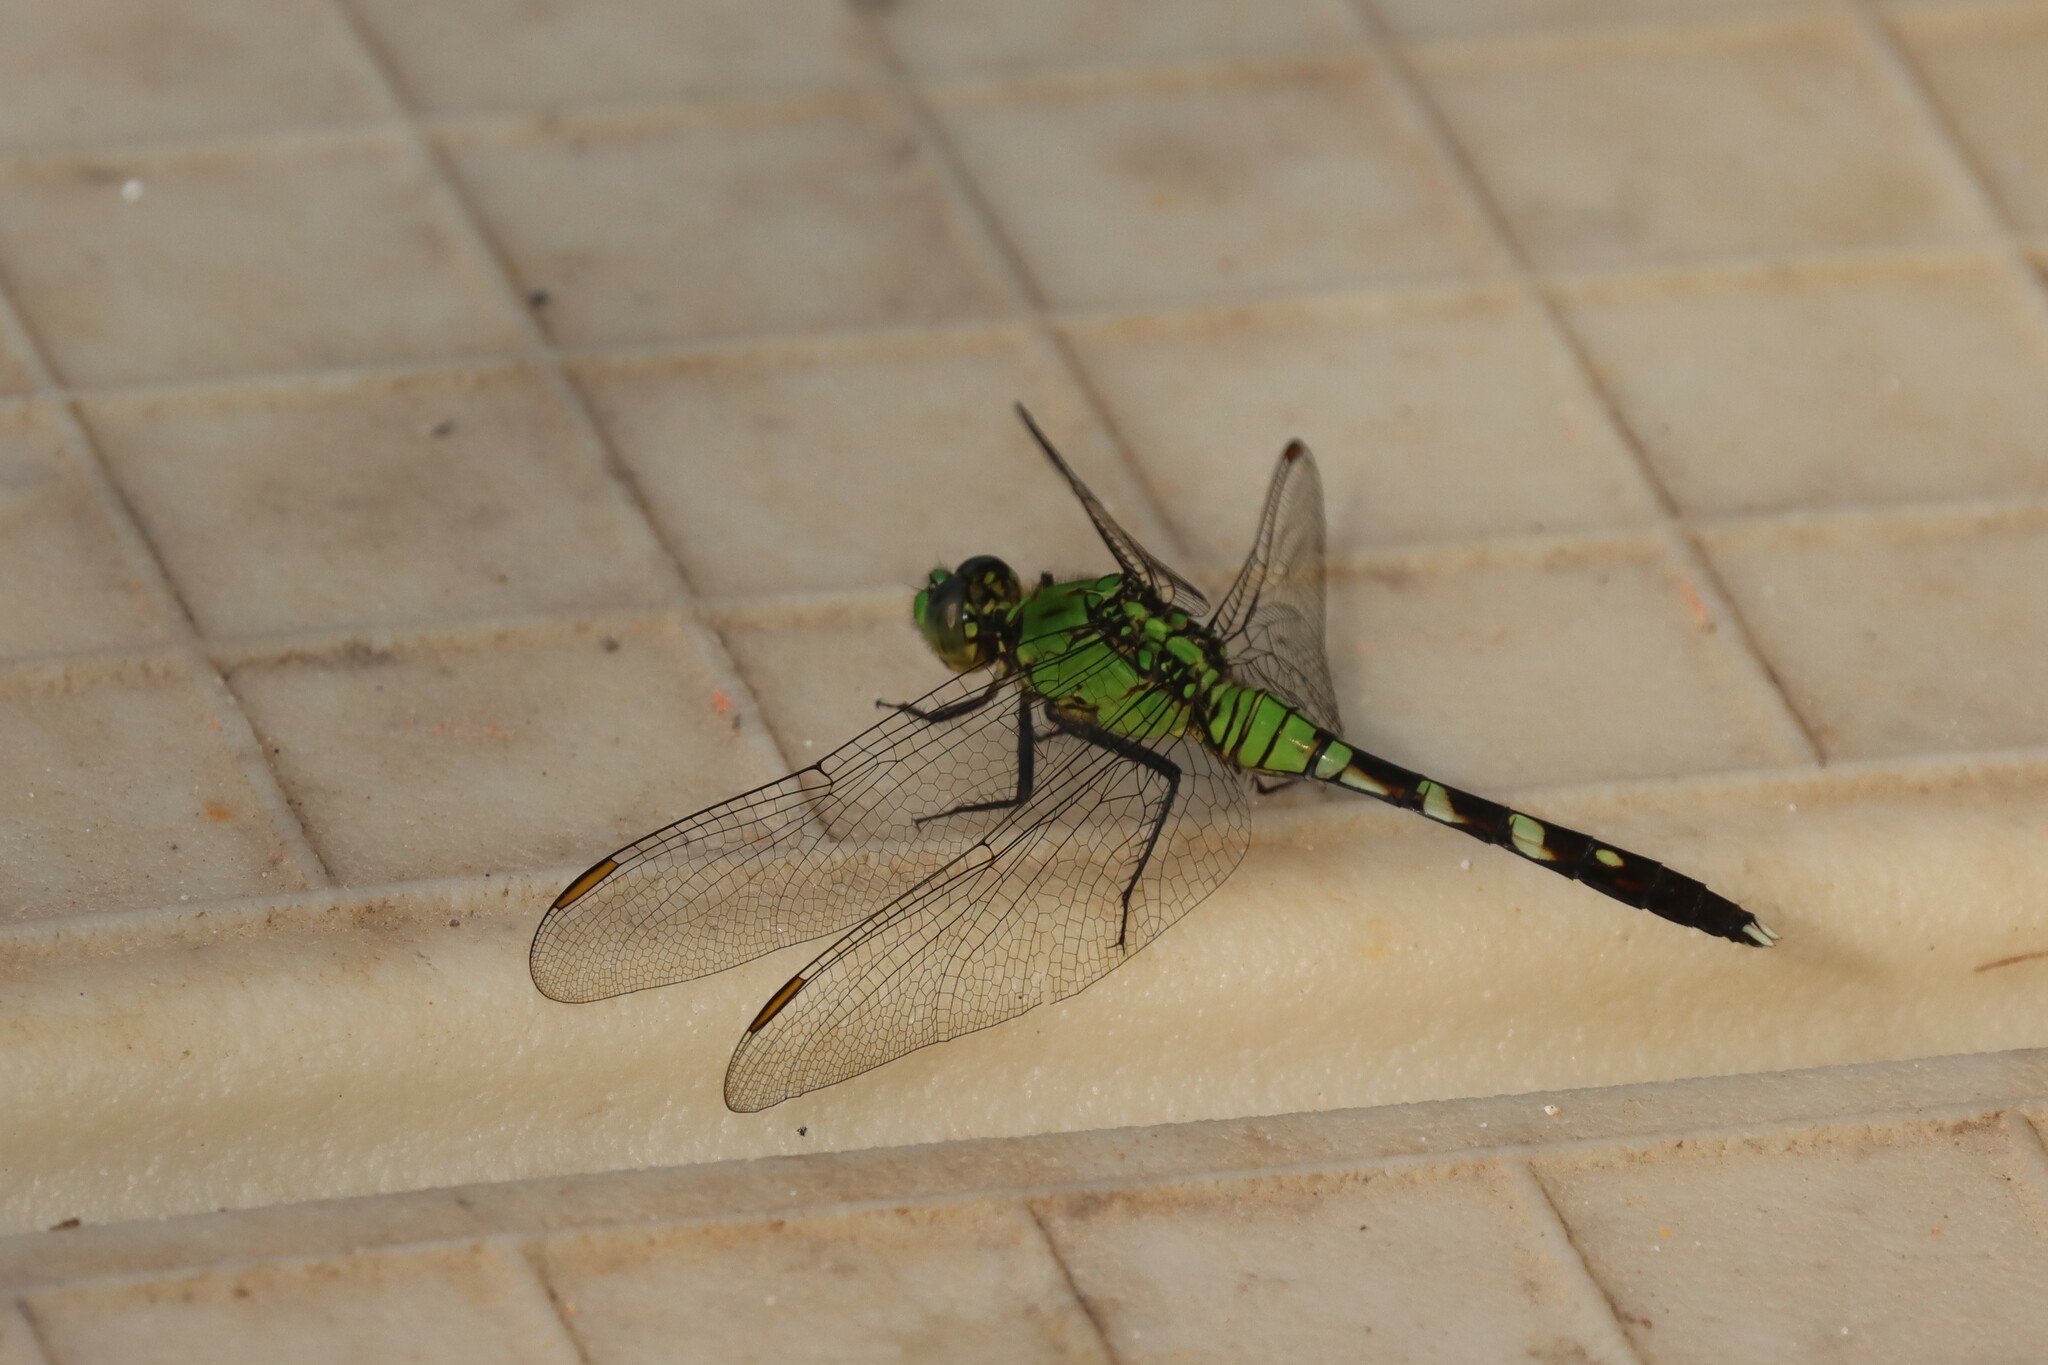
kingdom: Animalia
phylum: Arthropoda
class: Insecta
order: Odonata
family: Libellulidae
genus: Erythemis
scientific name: Erythemis simplicicollis
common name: Eastern pondhawk
